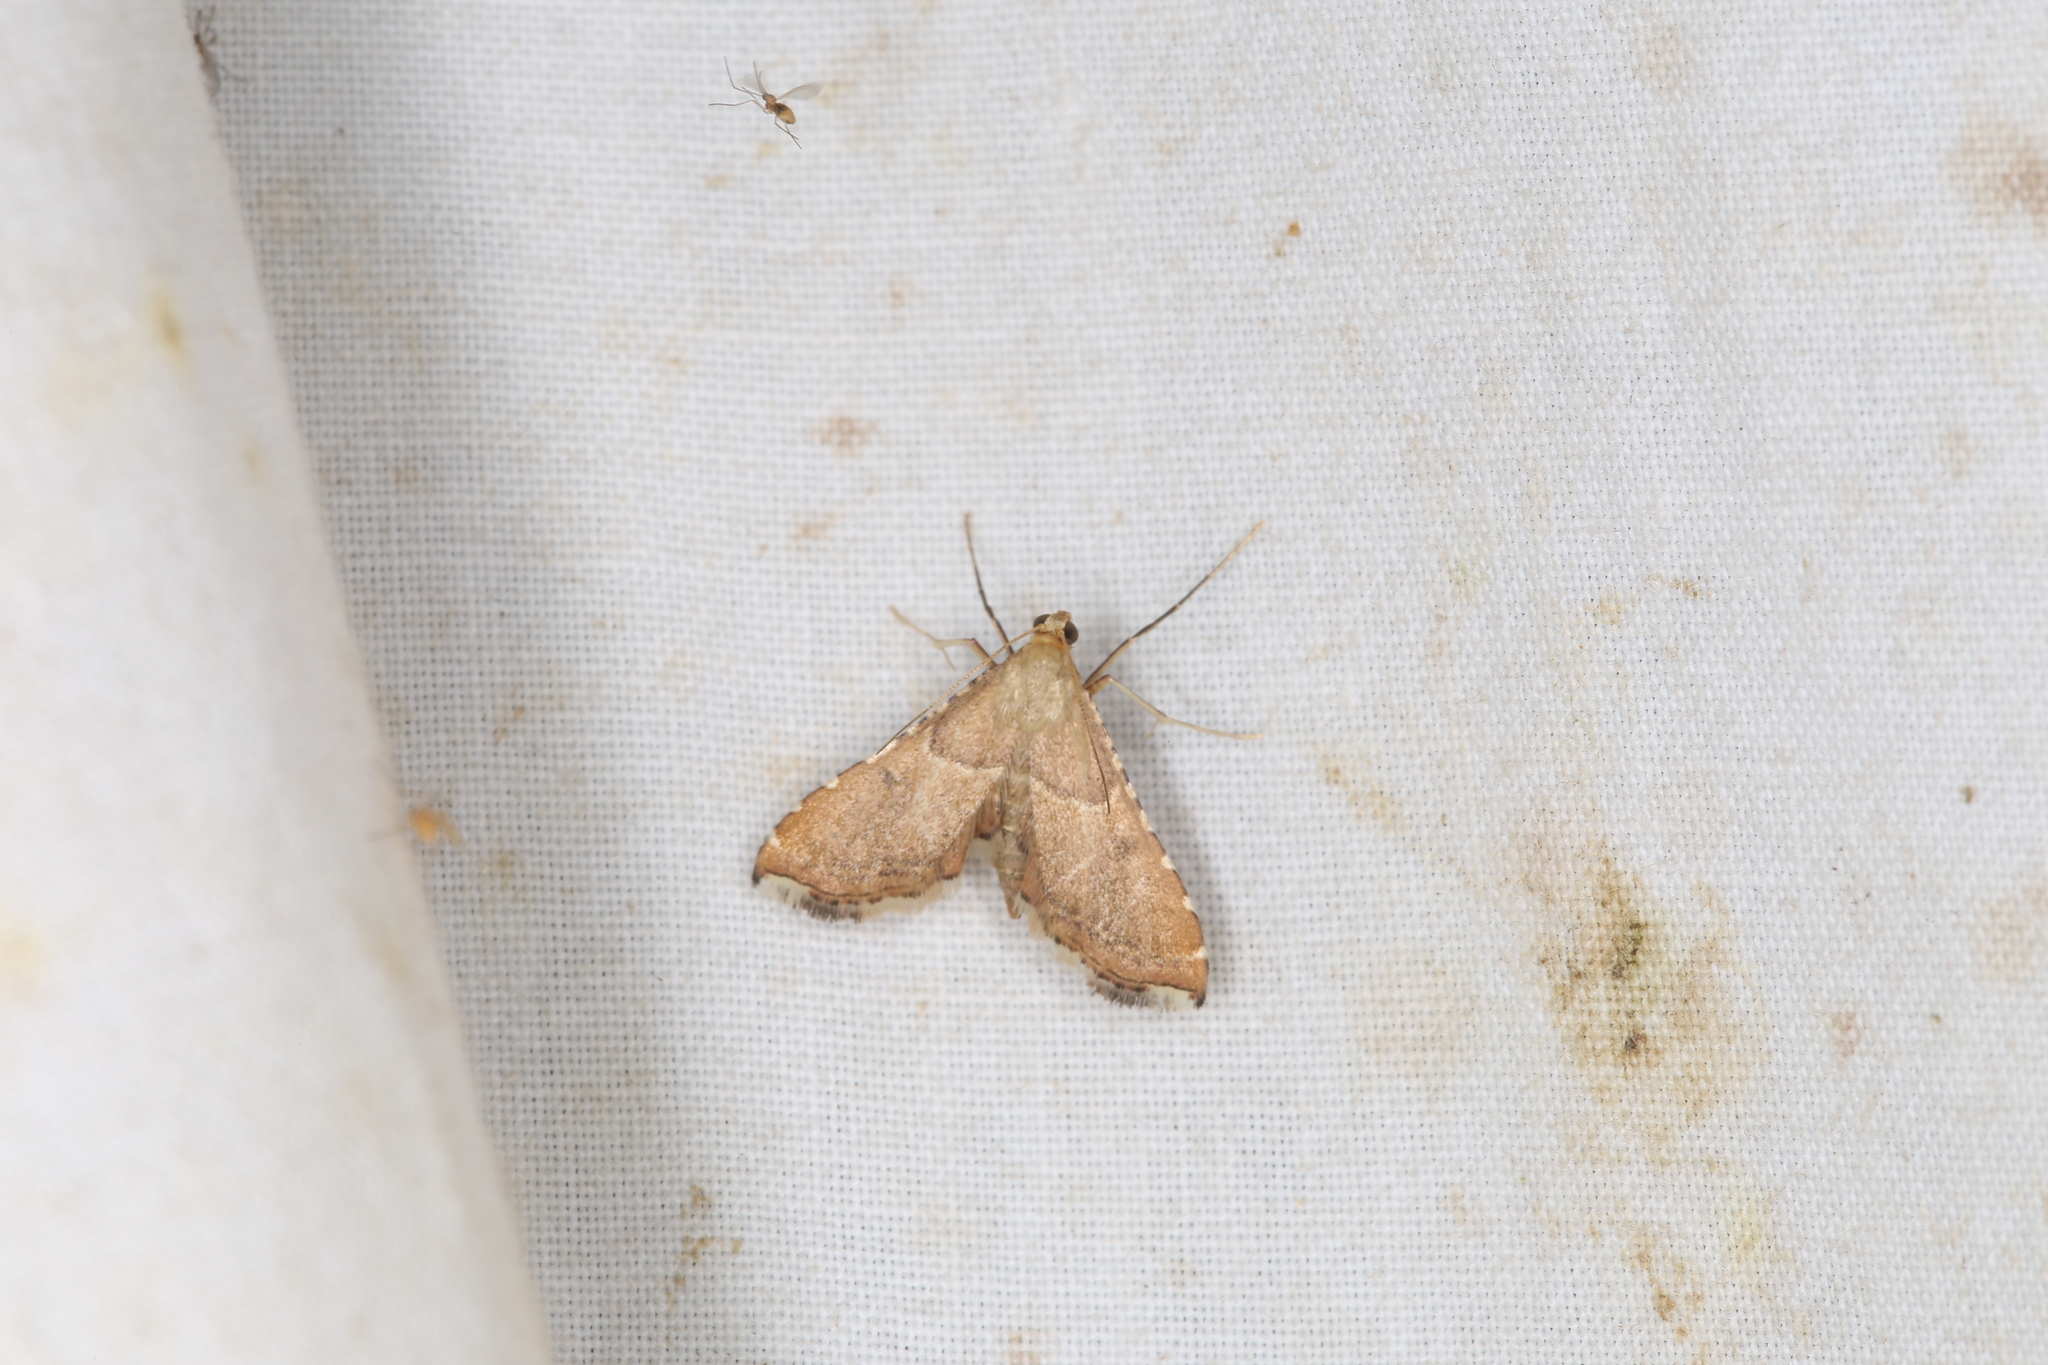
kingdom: Animalia
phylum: Arthropoda
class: Insecta
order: Lepidoptera
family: Pyralidae
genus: Endotricha
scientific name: Endotricha flammealis
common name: Rosy tabby
